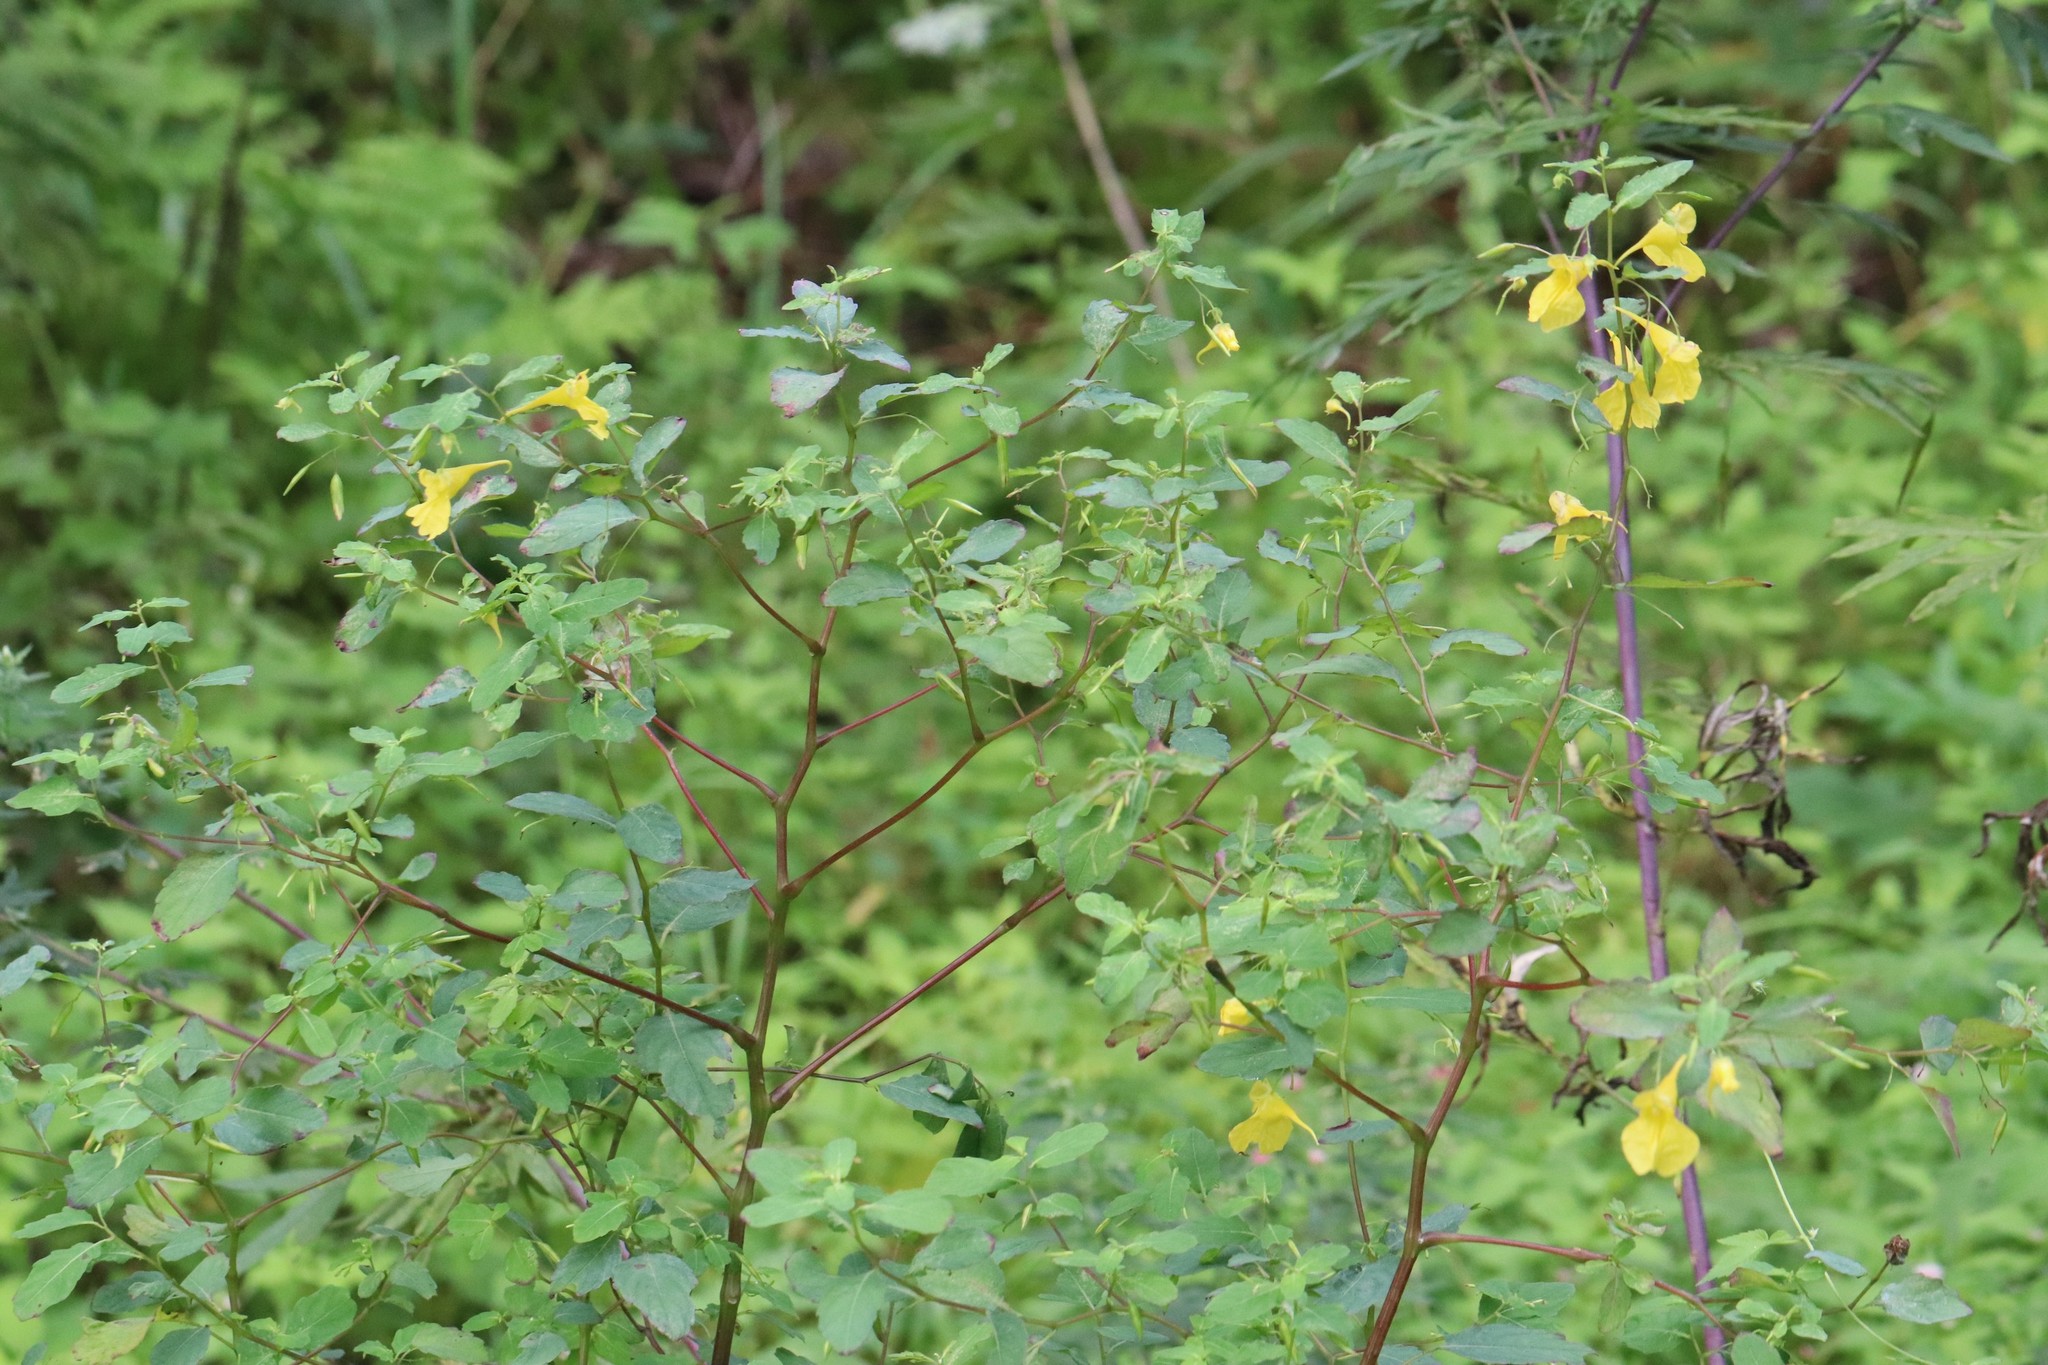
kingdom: Plantae
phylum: Tracheophyta
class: Magnoliopsida
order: Ericales
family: Balsaminaceae
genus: Impatiens
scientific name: Impatiens noli-tangere
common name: Touch-me-not balsam
